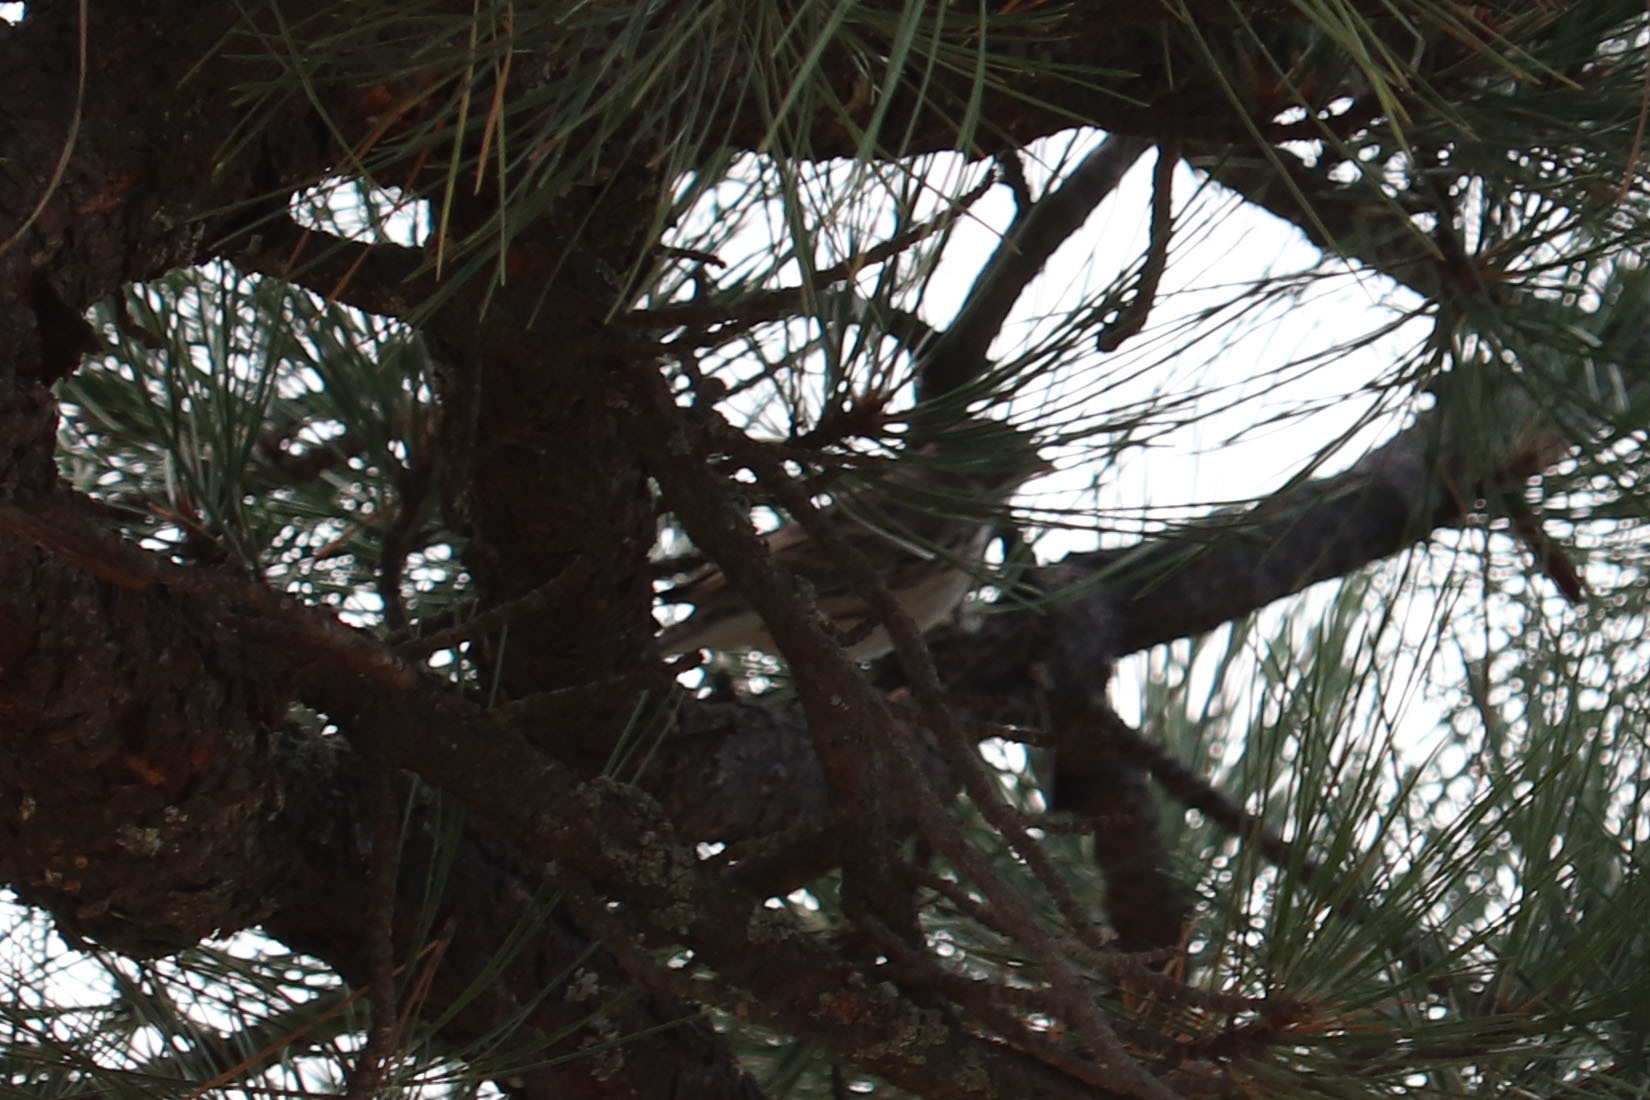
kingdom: Animalia
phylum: Chordata
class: Aves
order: Passeriformes
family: Passerellidae
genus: Pooecetes
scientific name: Pooecetes gramineus
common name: Vesper sparrow
